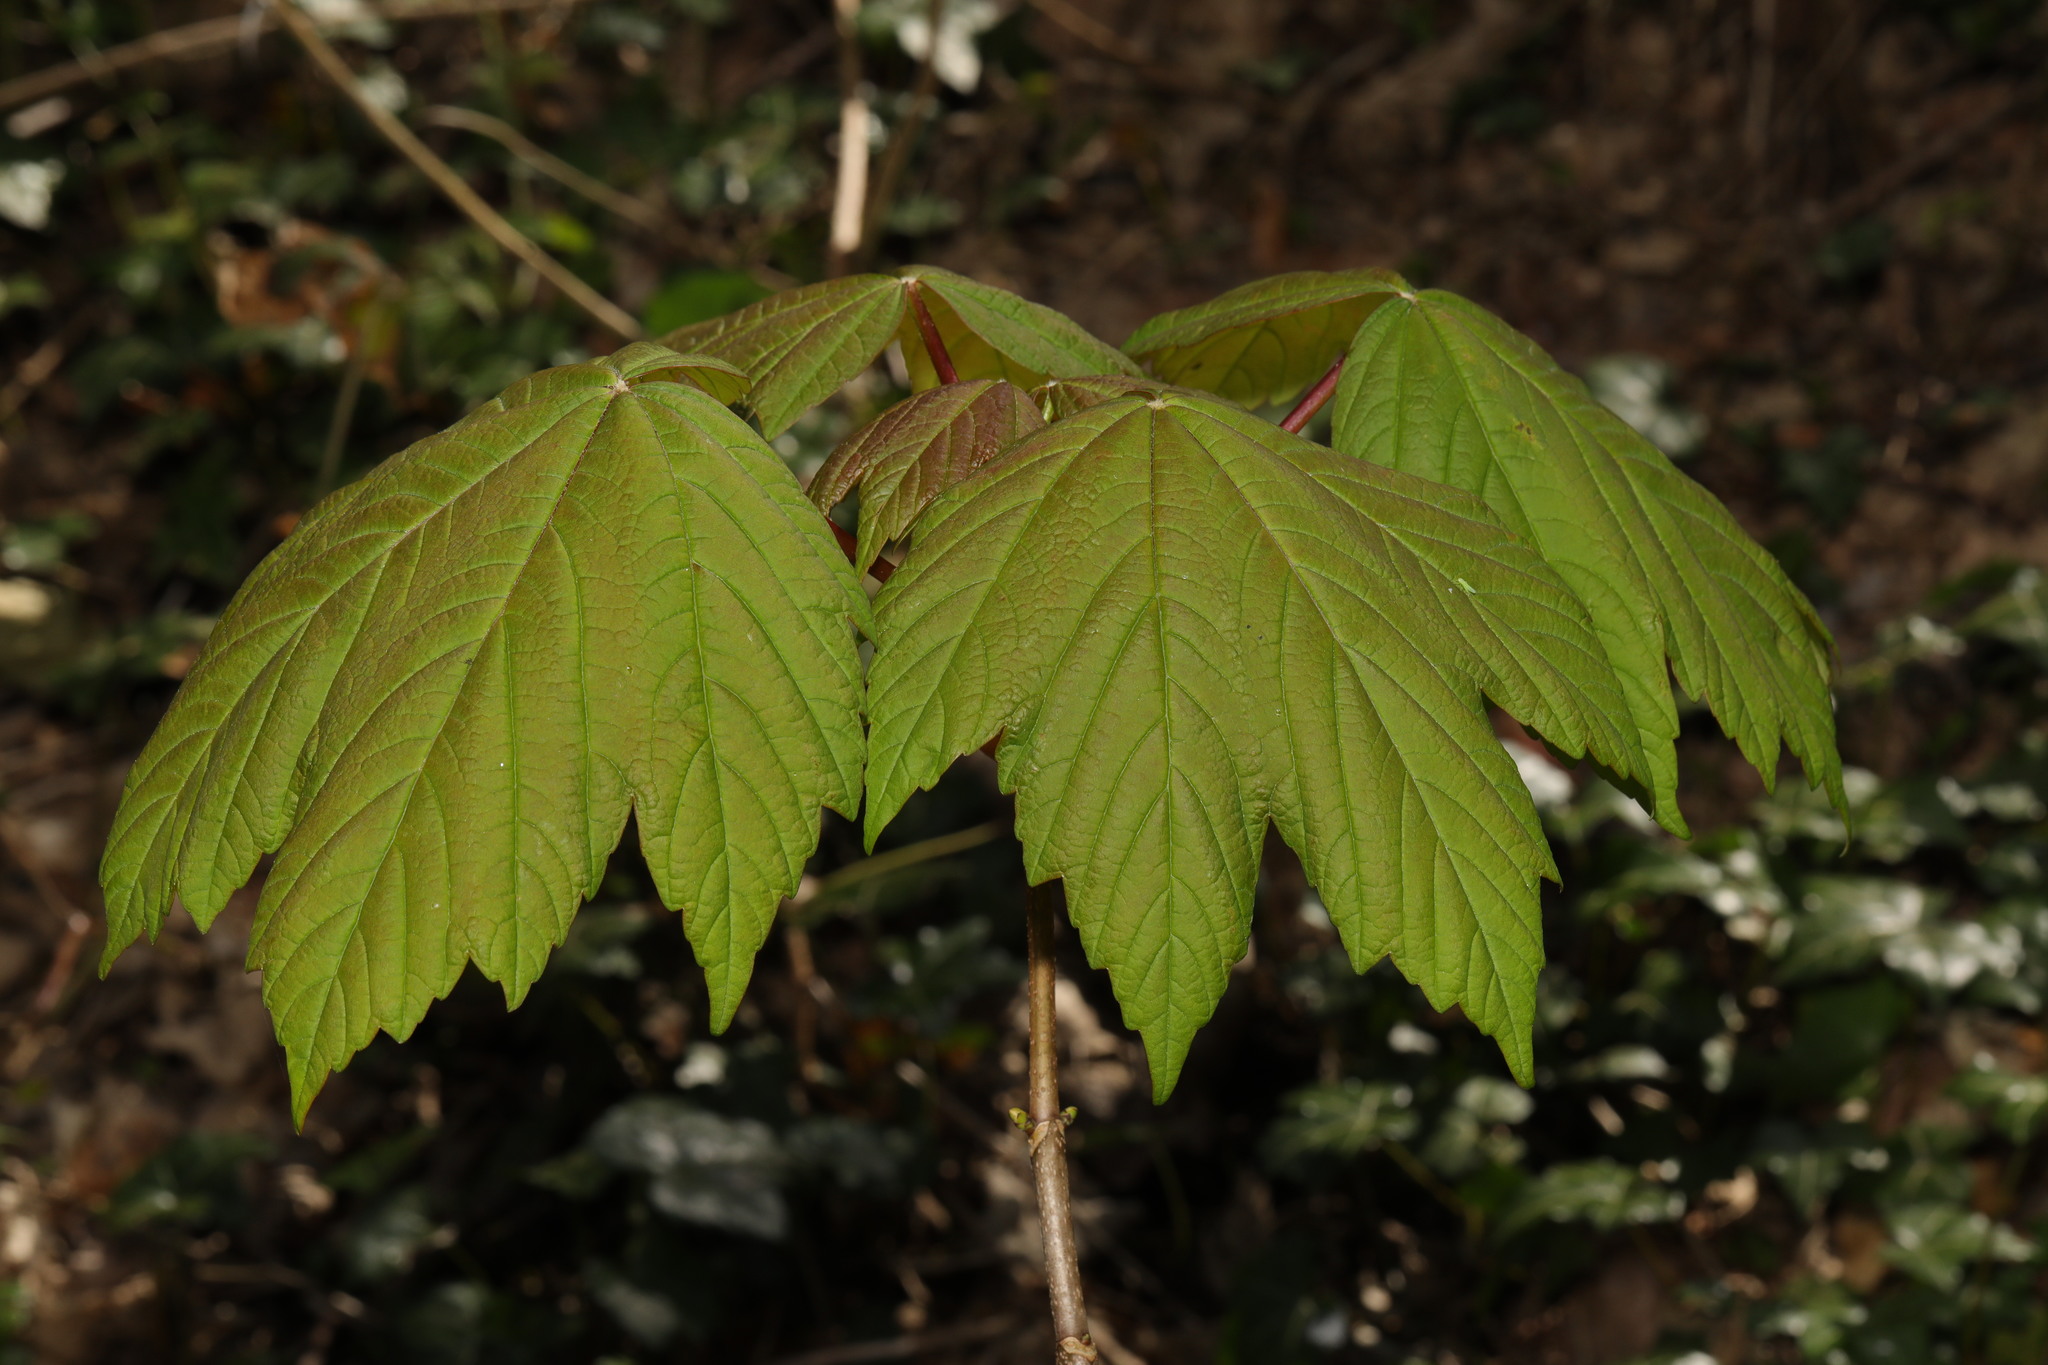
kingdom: Plantae
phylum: Tracheophyta
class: Magnoliopsida
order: Sapindales
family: Sapindaceae
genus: Acer
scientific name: Acer pseudoplatanus
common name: Sycamore
